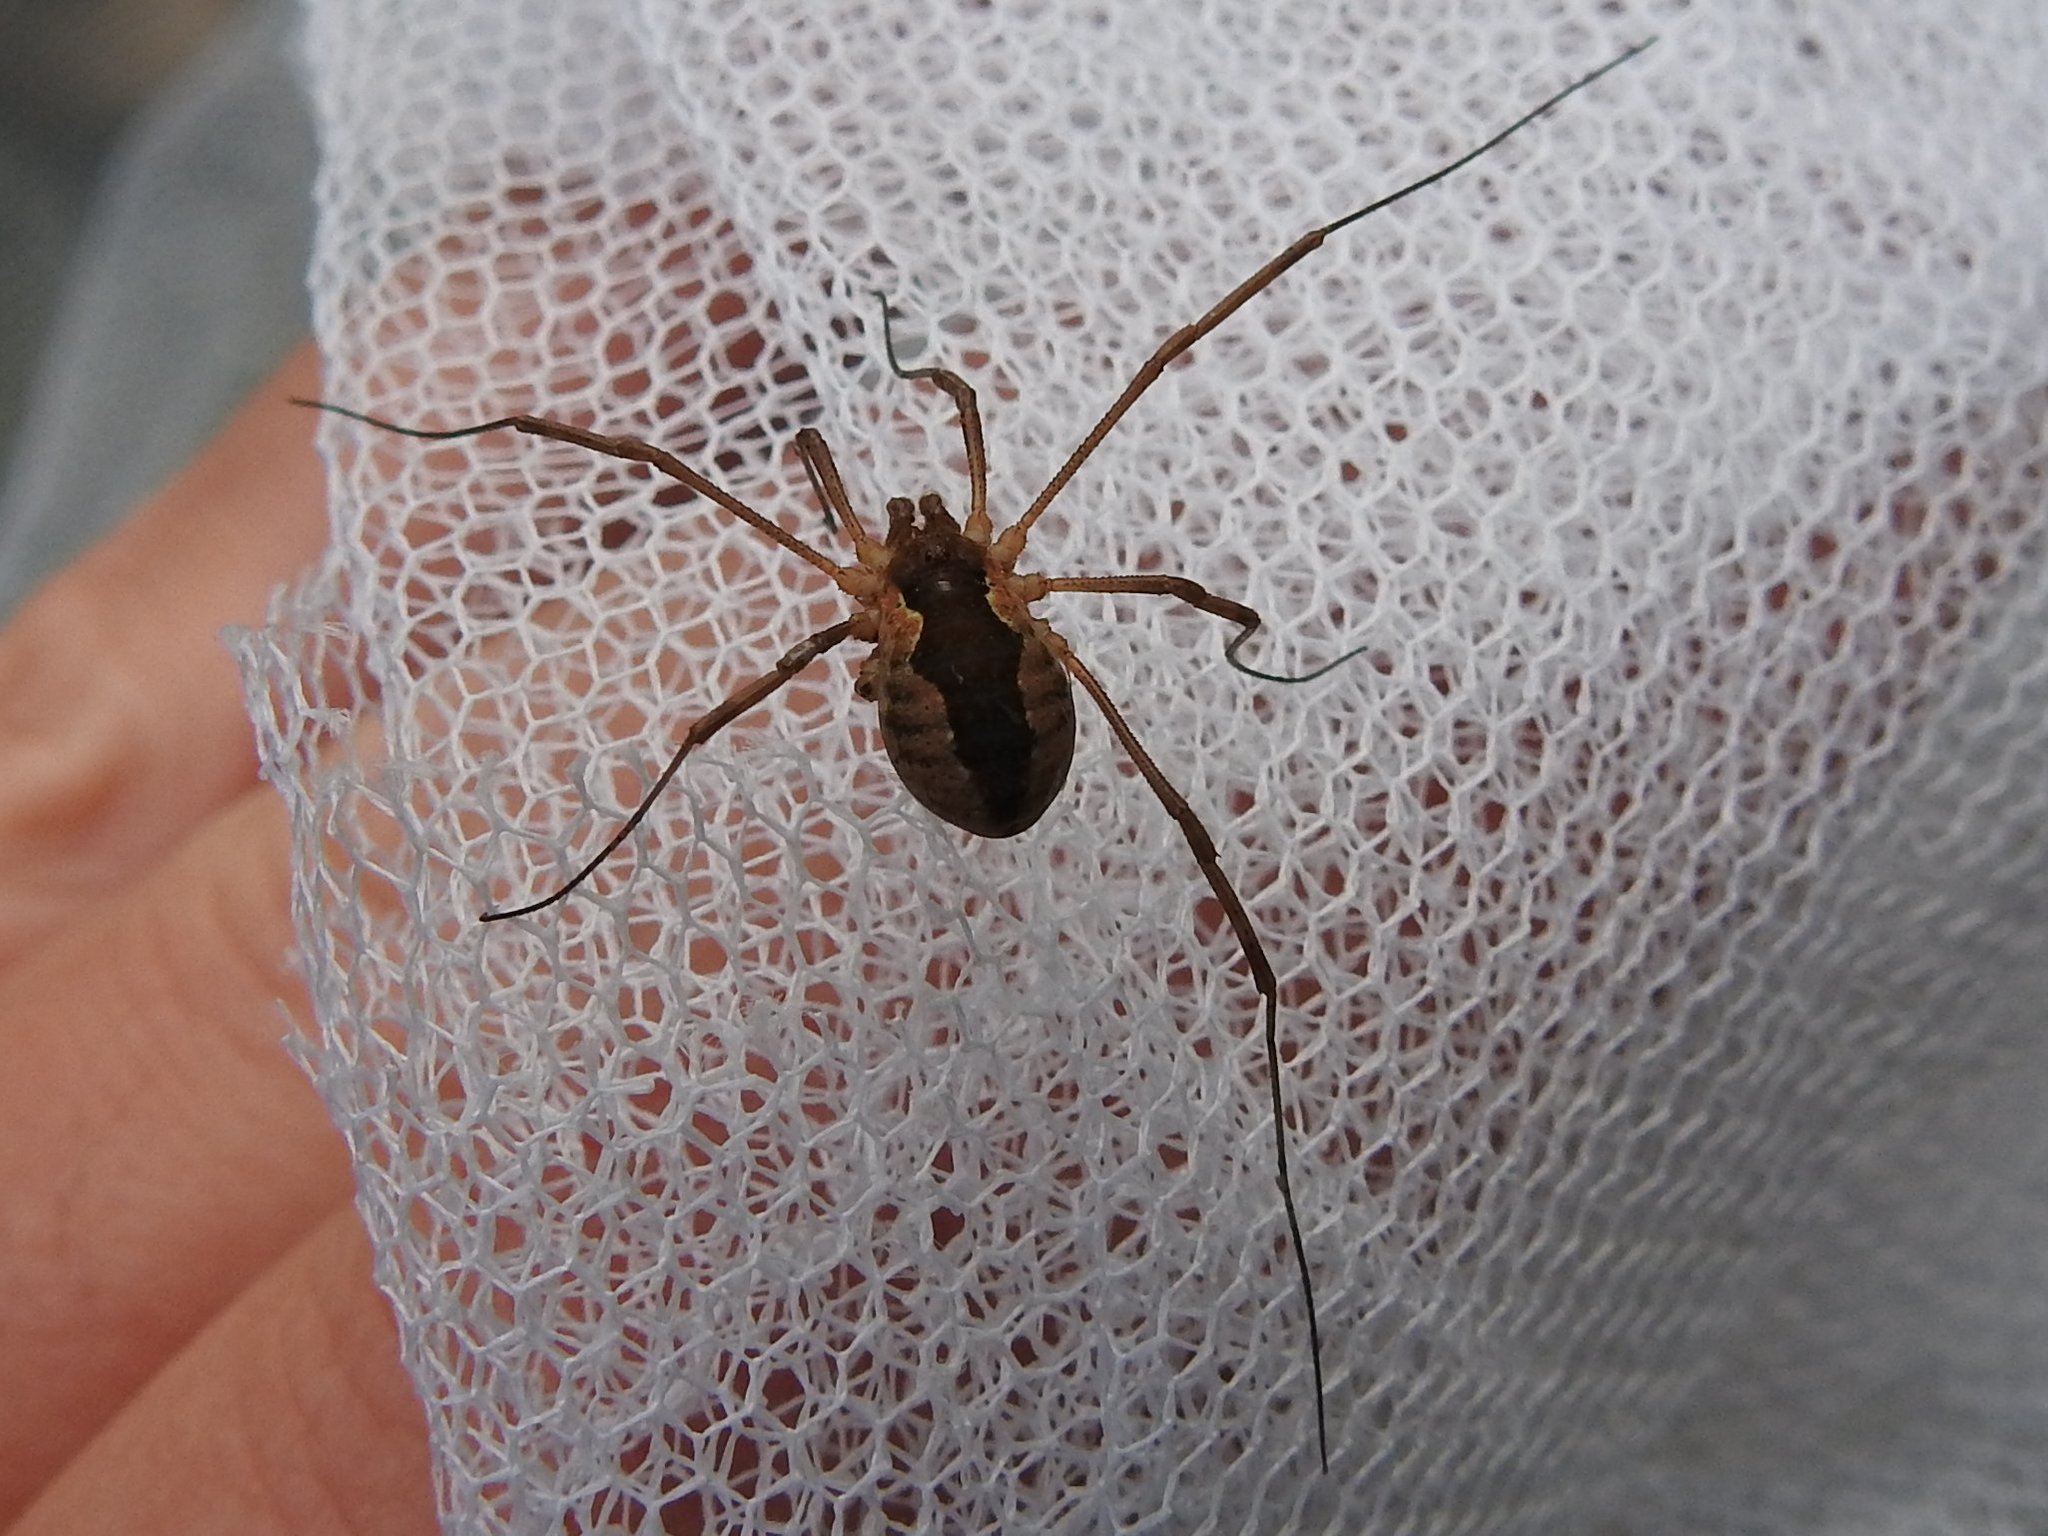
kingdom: Animalia
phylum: Arthropoda
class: Arachnida
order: Opiliones
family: Phalangiidae
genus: Mitopus
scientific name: Mitopus morio
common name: Saddleback harvestman
